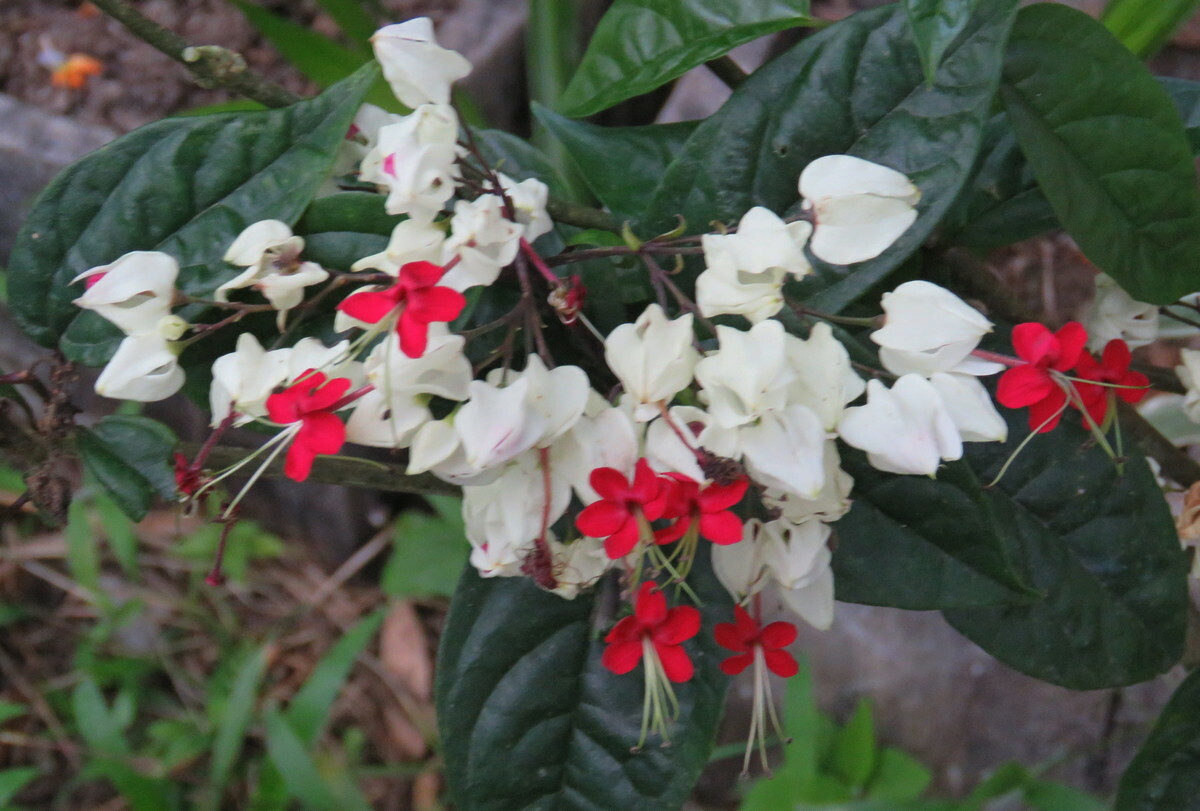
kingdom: Plantae
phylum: Tracheophyta
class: Magnoliopsida
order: Lamiales
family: Lamiaceae
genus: Clerodendrum
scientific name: Clerodendrum thomsoniae
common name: Bagflower
